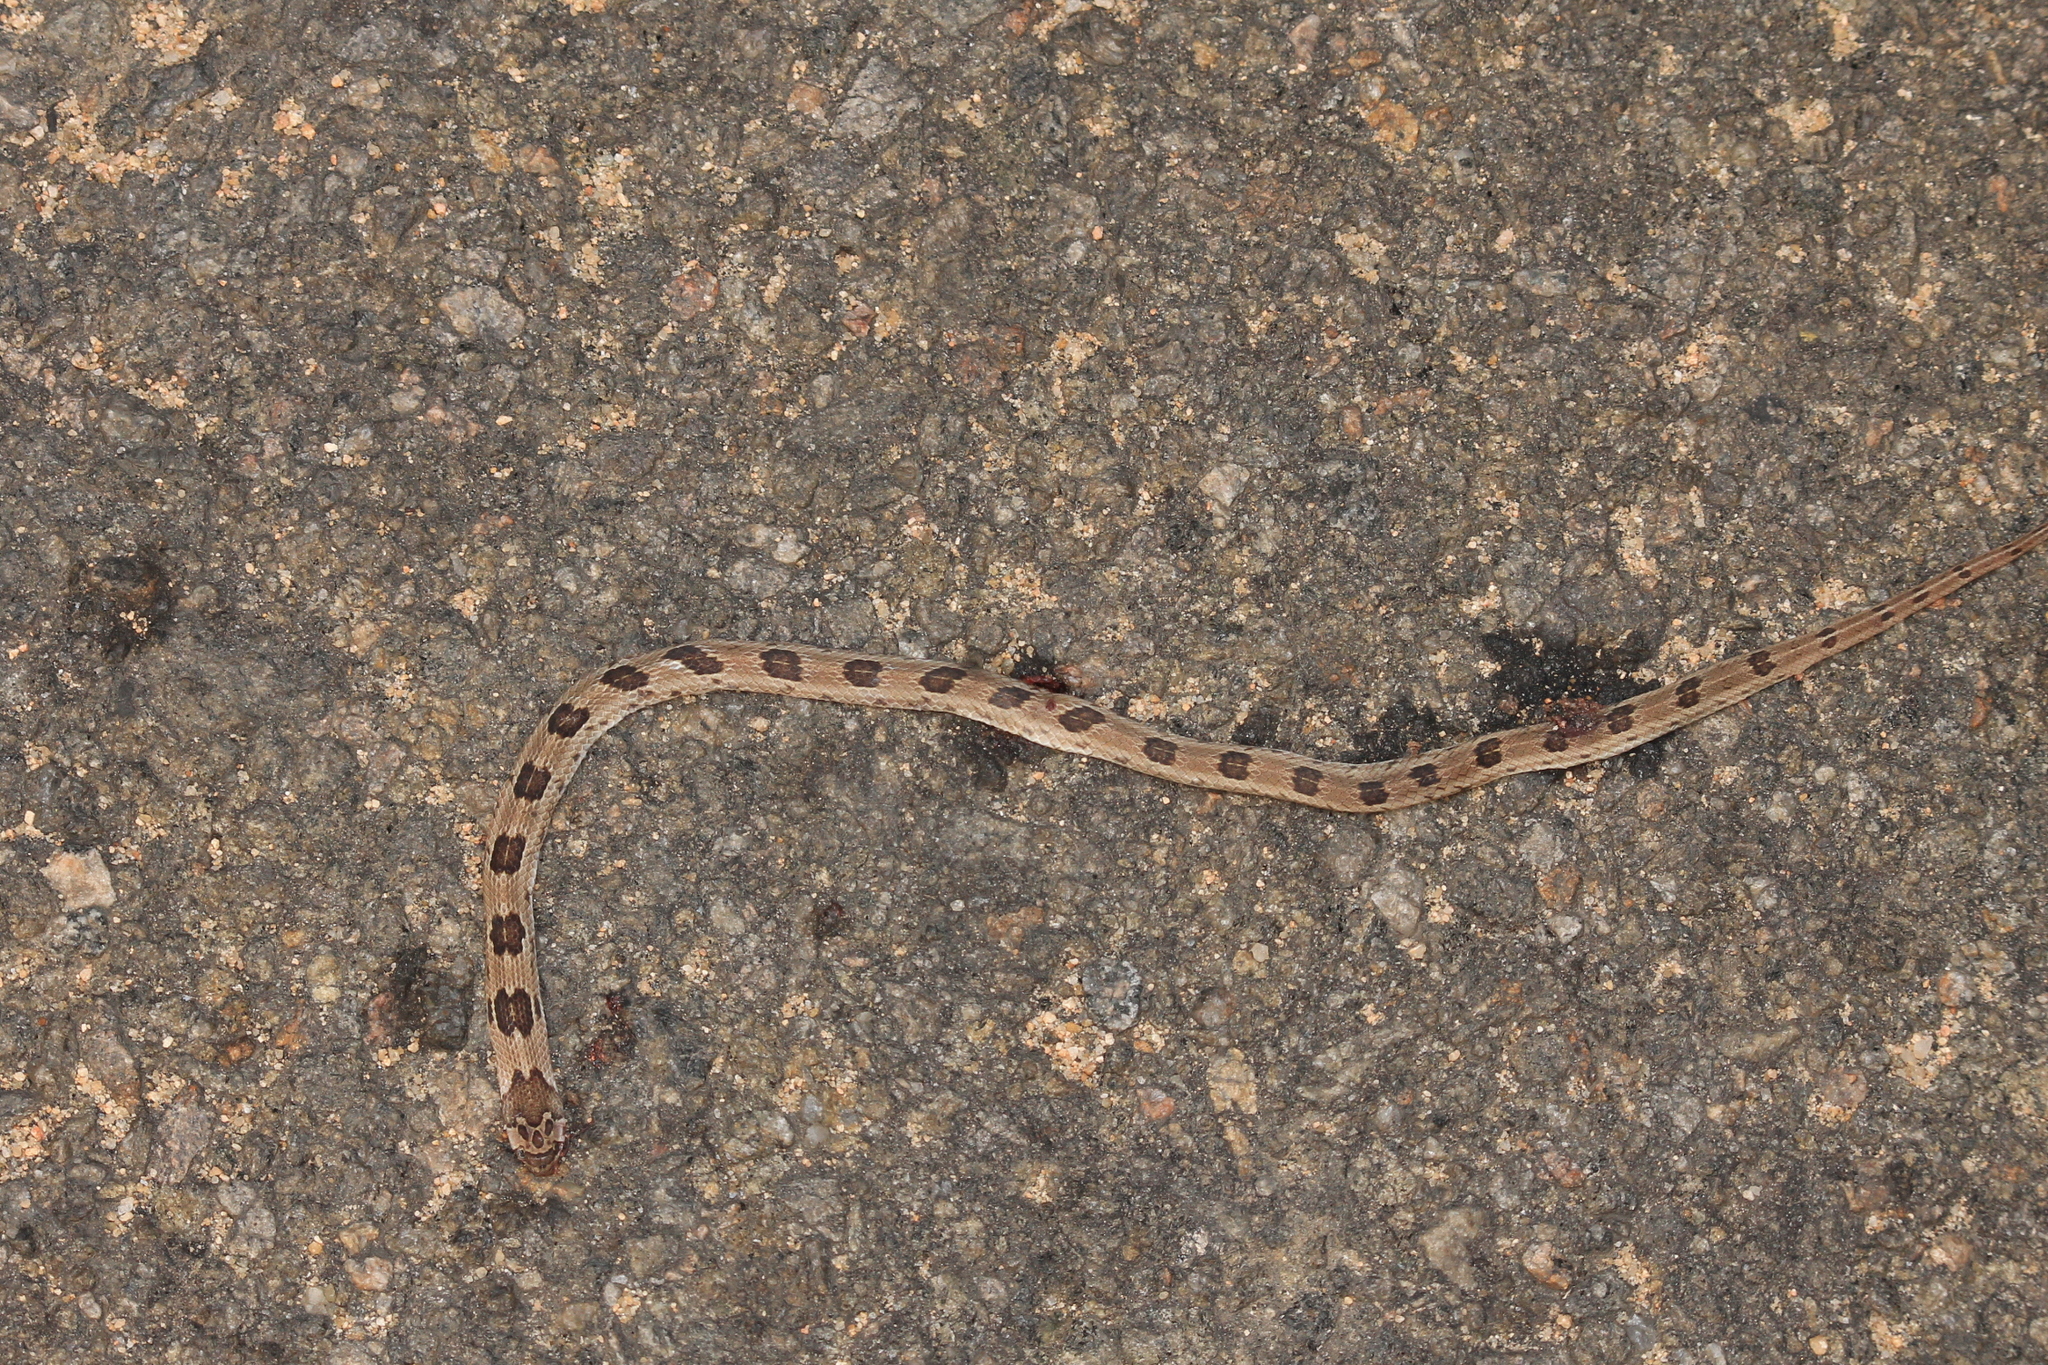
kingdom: Animalia
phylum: Chordata
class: Squamata
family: Colubridae
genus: Oligodon
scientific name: Oligodon taeniolatus
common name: Loos snake
